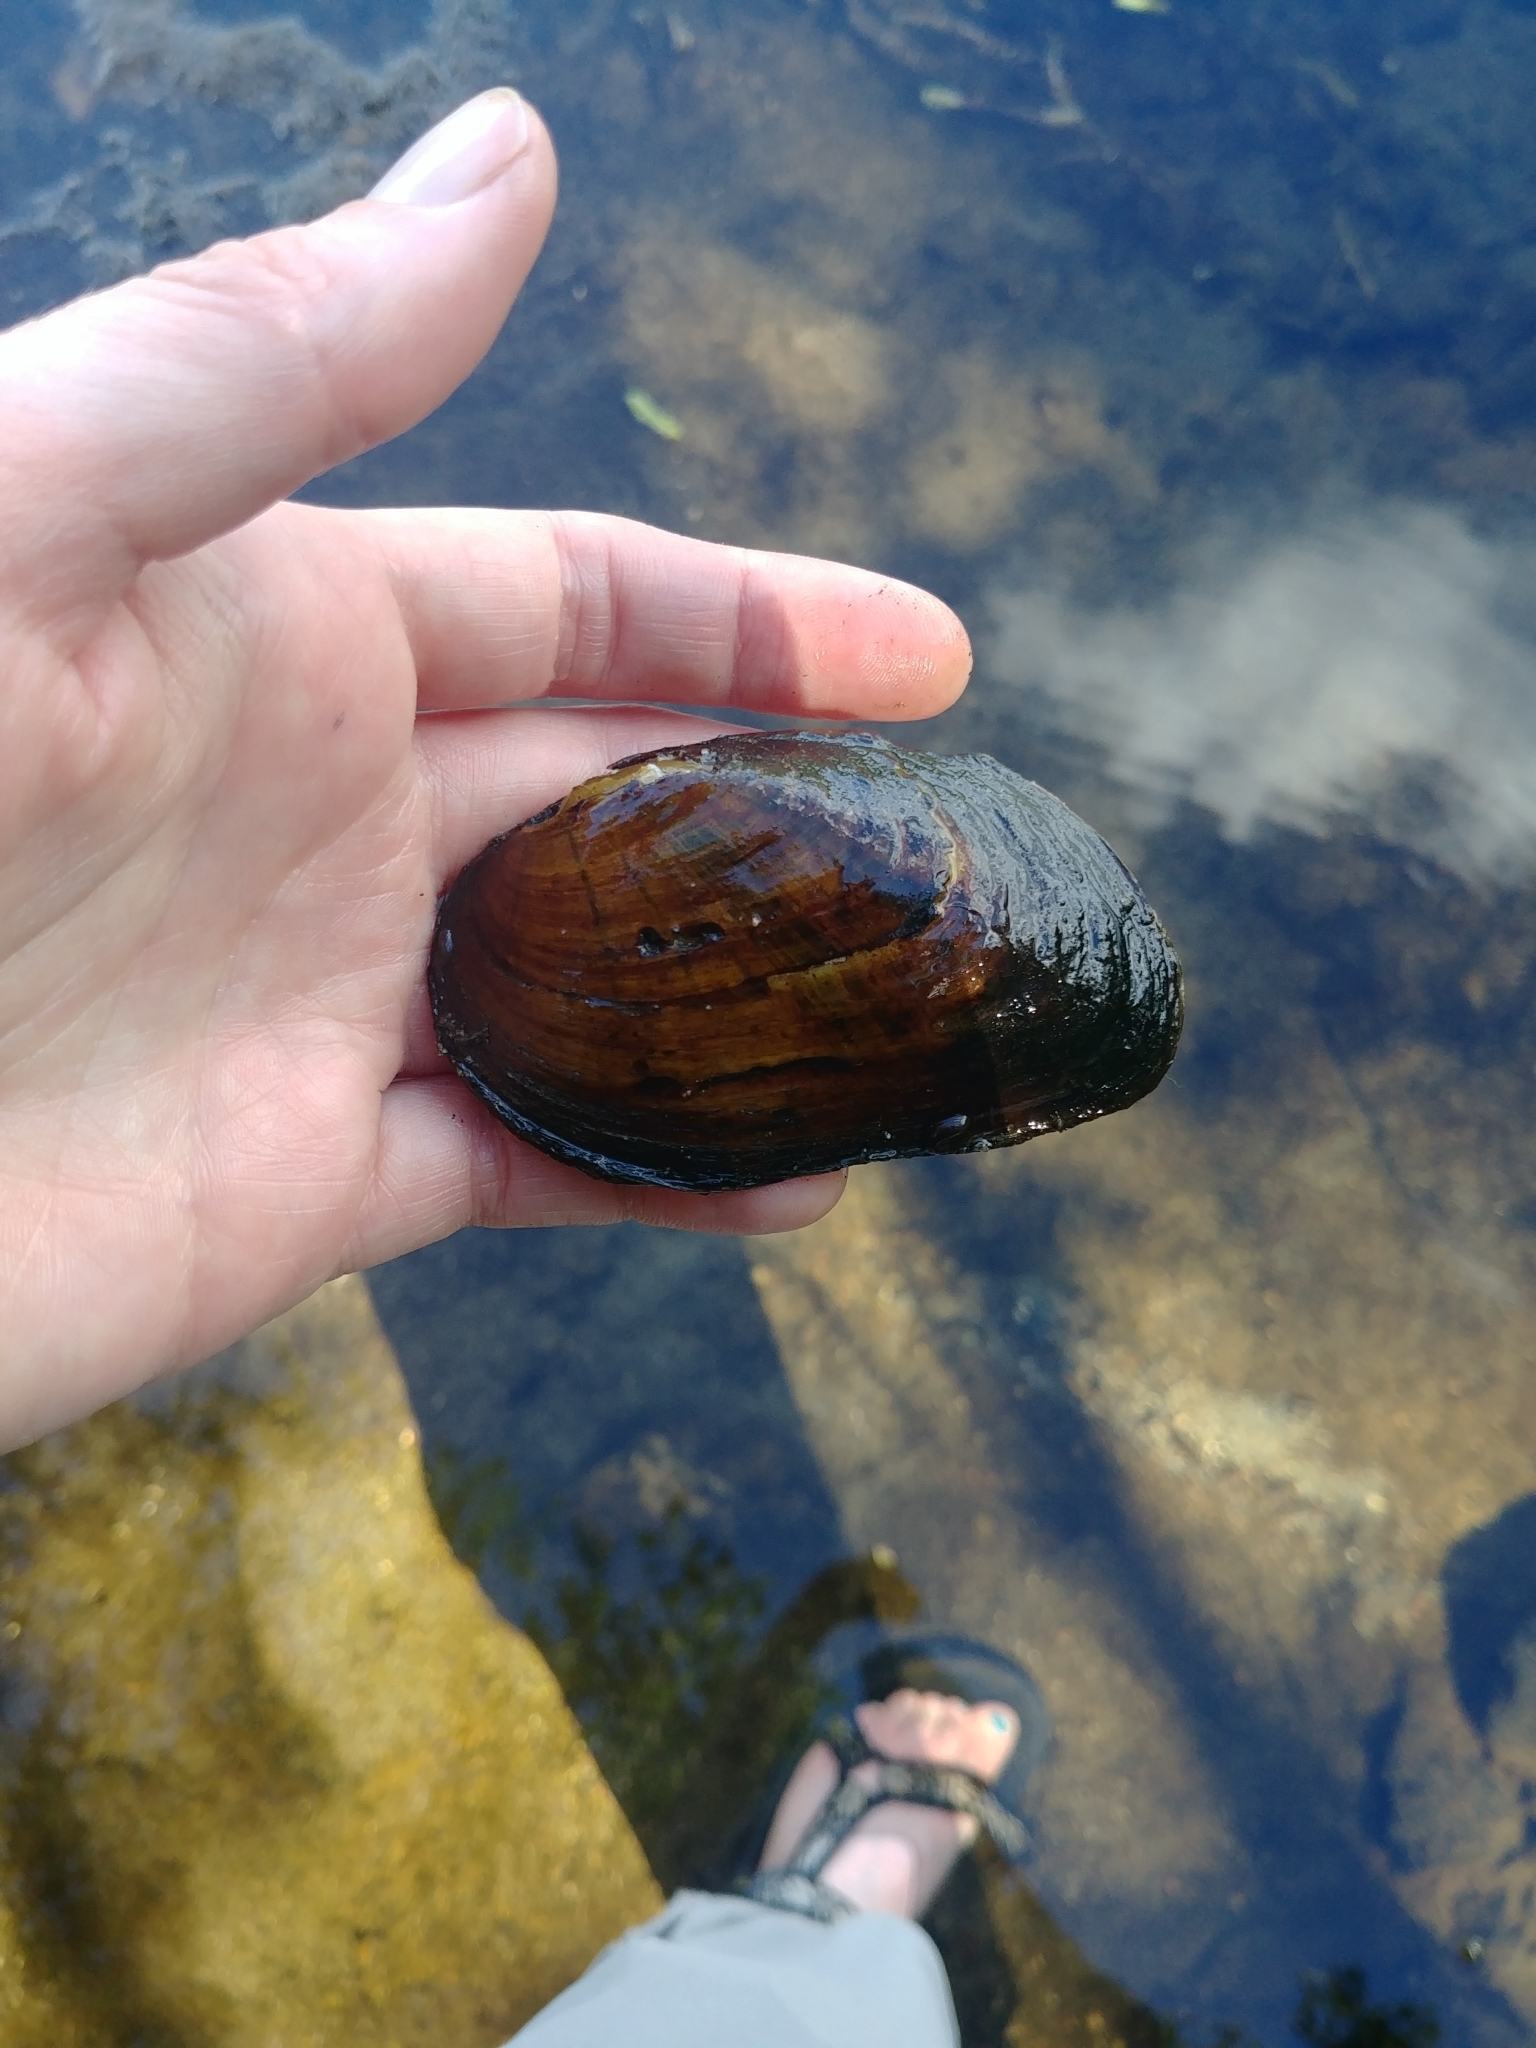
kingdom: Animalia
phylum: Mollusca
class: Bivalvia
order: Unionida
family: Unionidae
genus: Elliptio
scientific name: Elliptio complanata
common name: Eastern elliptio
